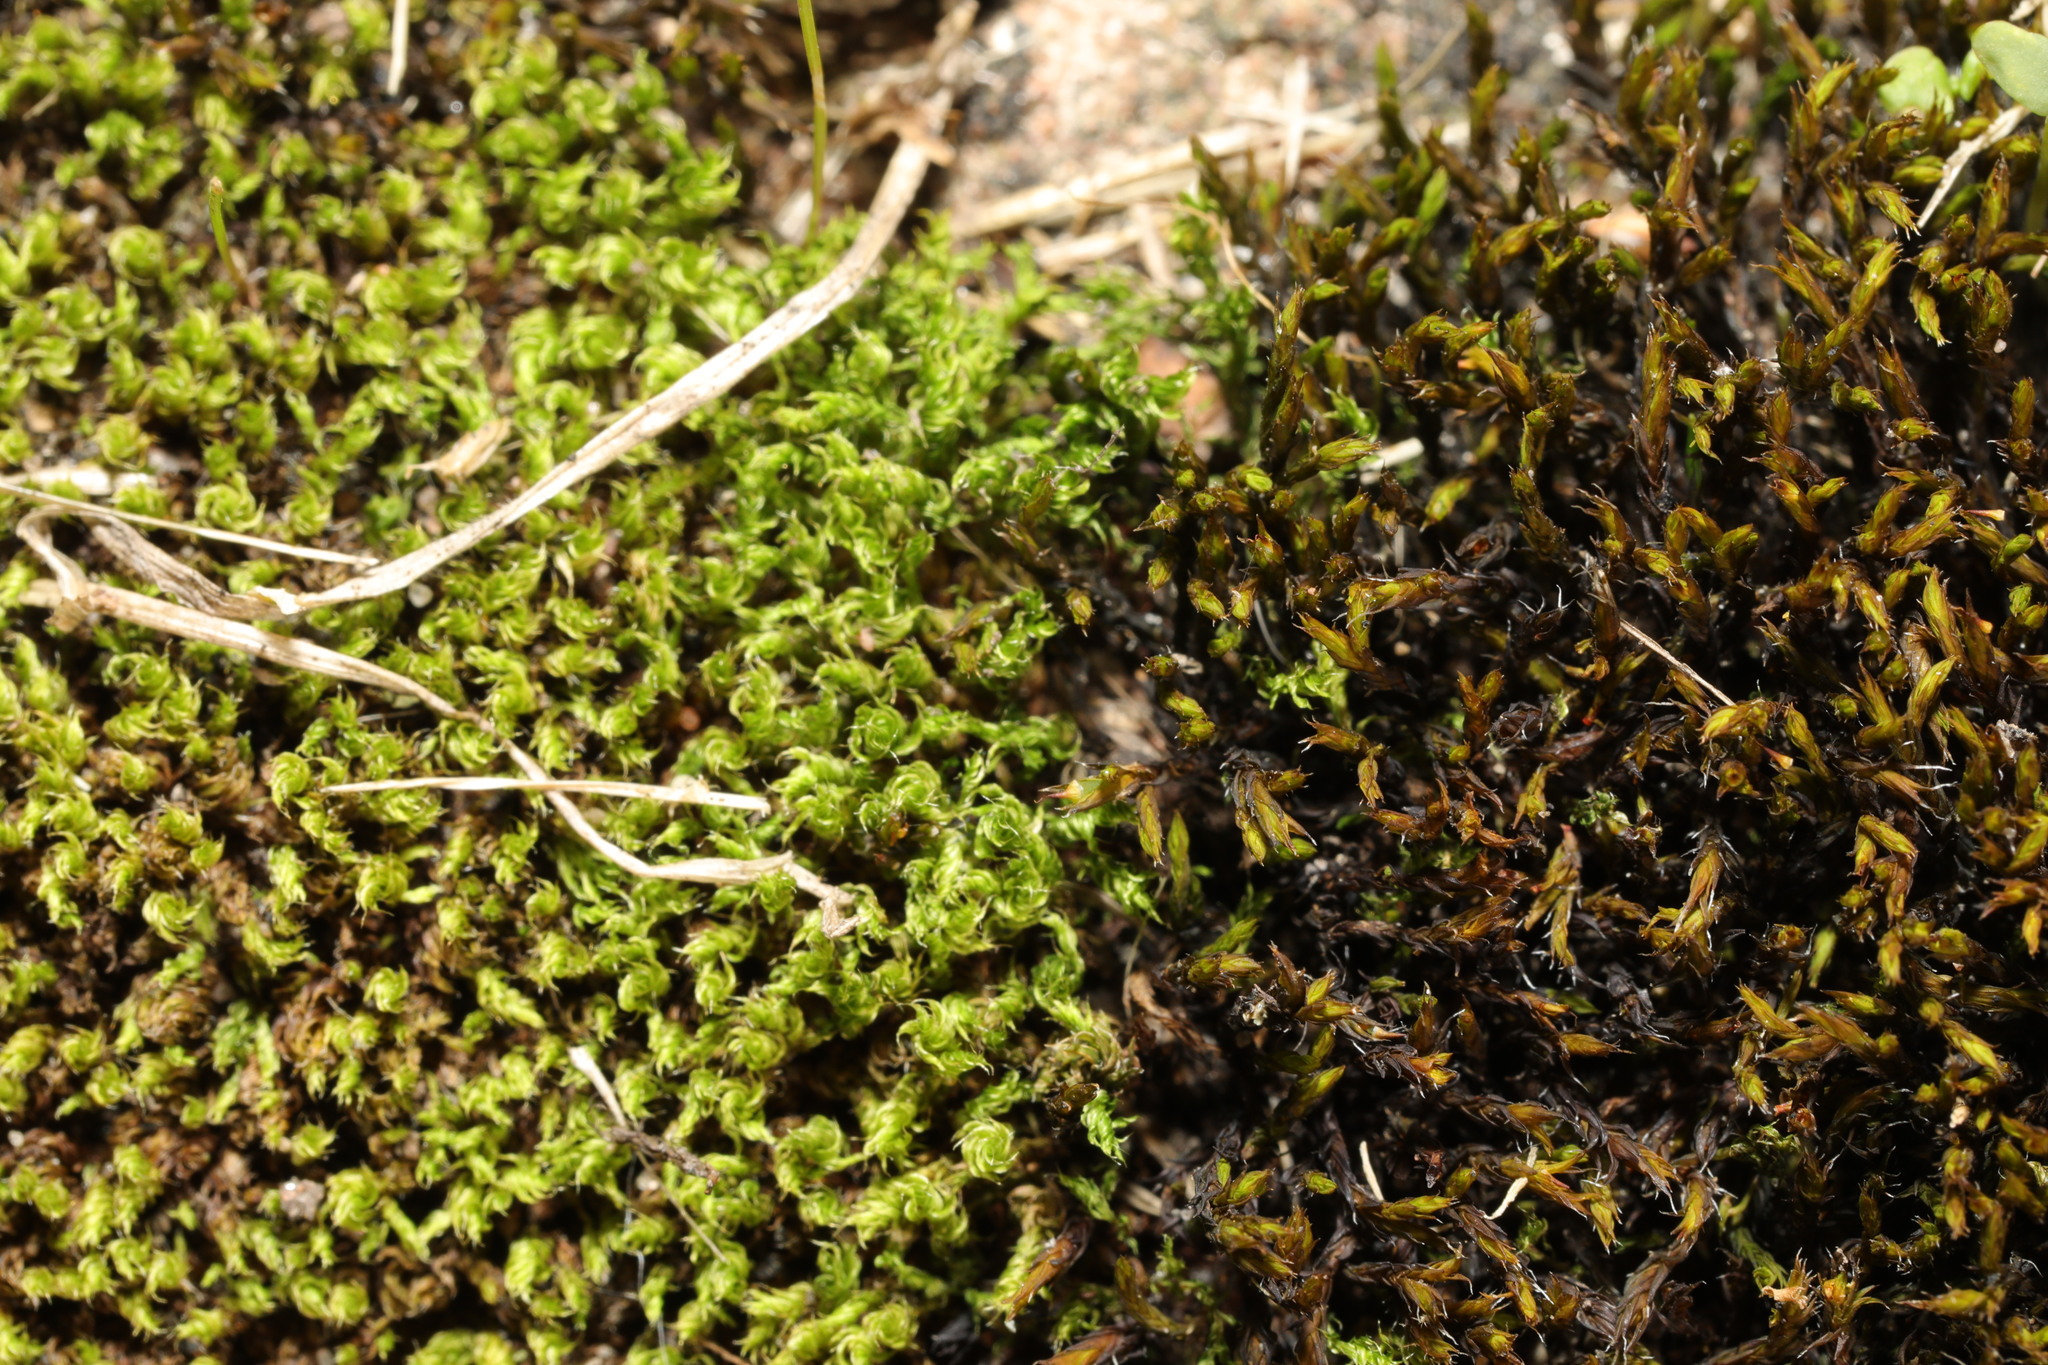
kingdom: Plantae
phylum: Bryophyta
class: Bryopsida
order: Grimmiales
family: Grimmiaceae
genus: Schistidium
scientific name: Schistidium crassipilum
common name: Thickpoint bloom moss
